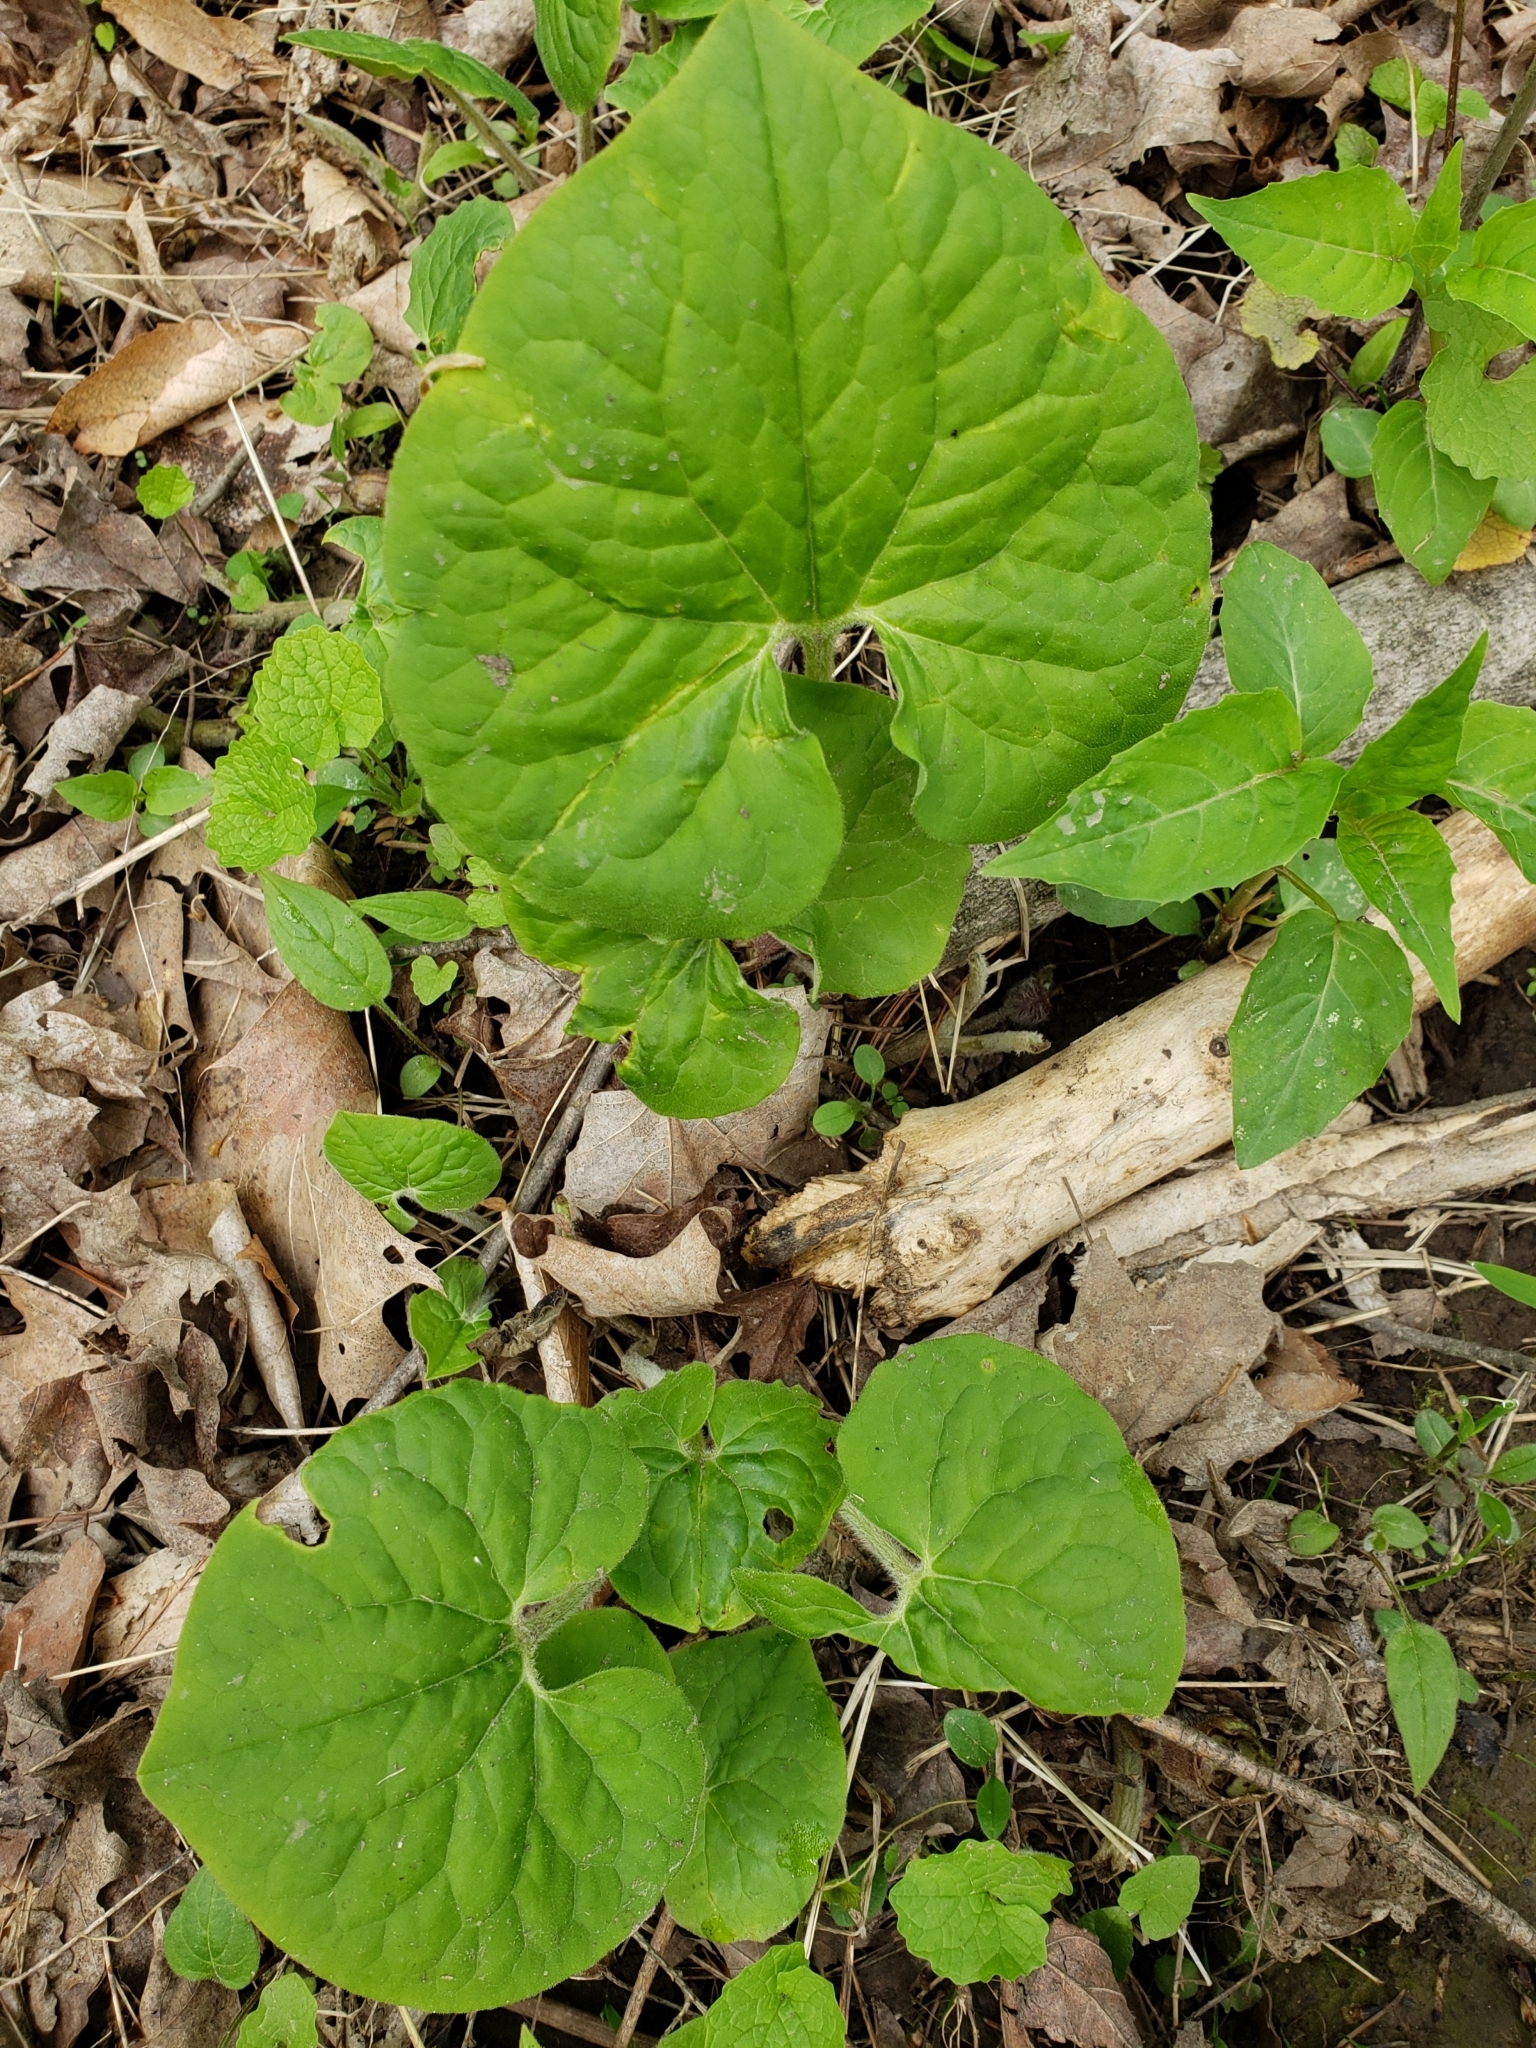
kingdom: Plantae
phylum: Tracheophyta
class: Magnoliopsida
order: Piperales
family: Aristolochiaceae
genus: Asarum
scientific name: Asarum canadense
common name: Wild ginger
